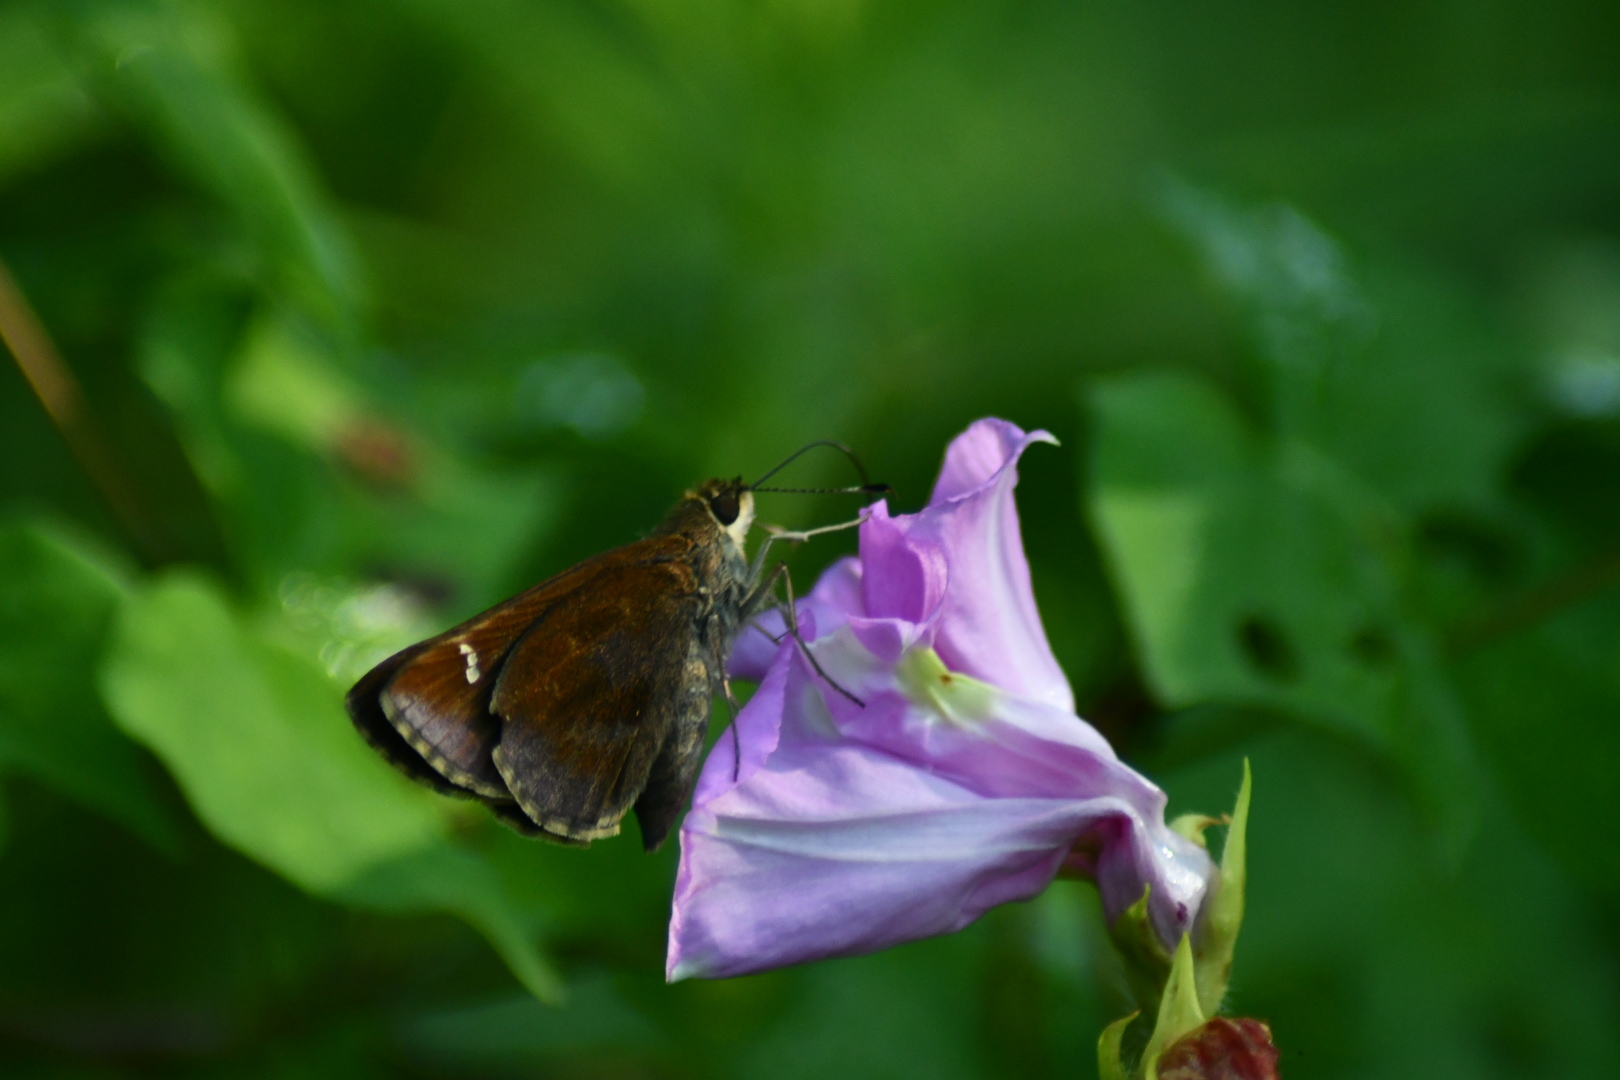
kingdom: Animalia
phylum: Arthropoda
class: Insecta
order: Lepidoptera
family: Hesperiidae
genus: Lerema
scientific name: Lerema accius
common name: Clouded skipper
